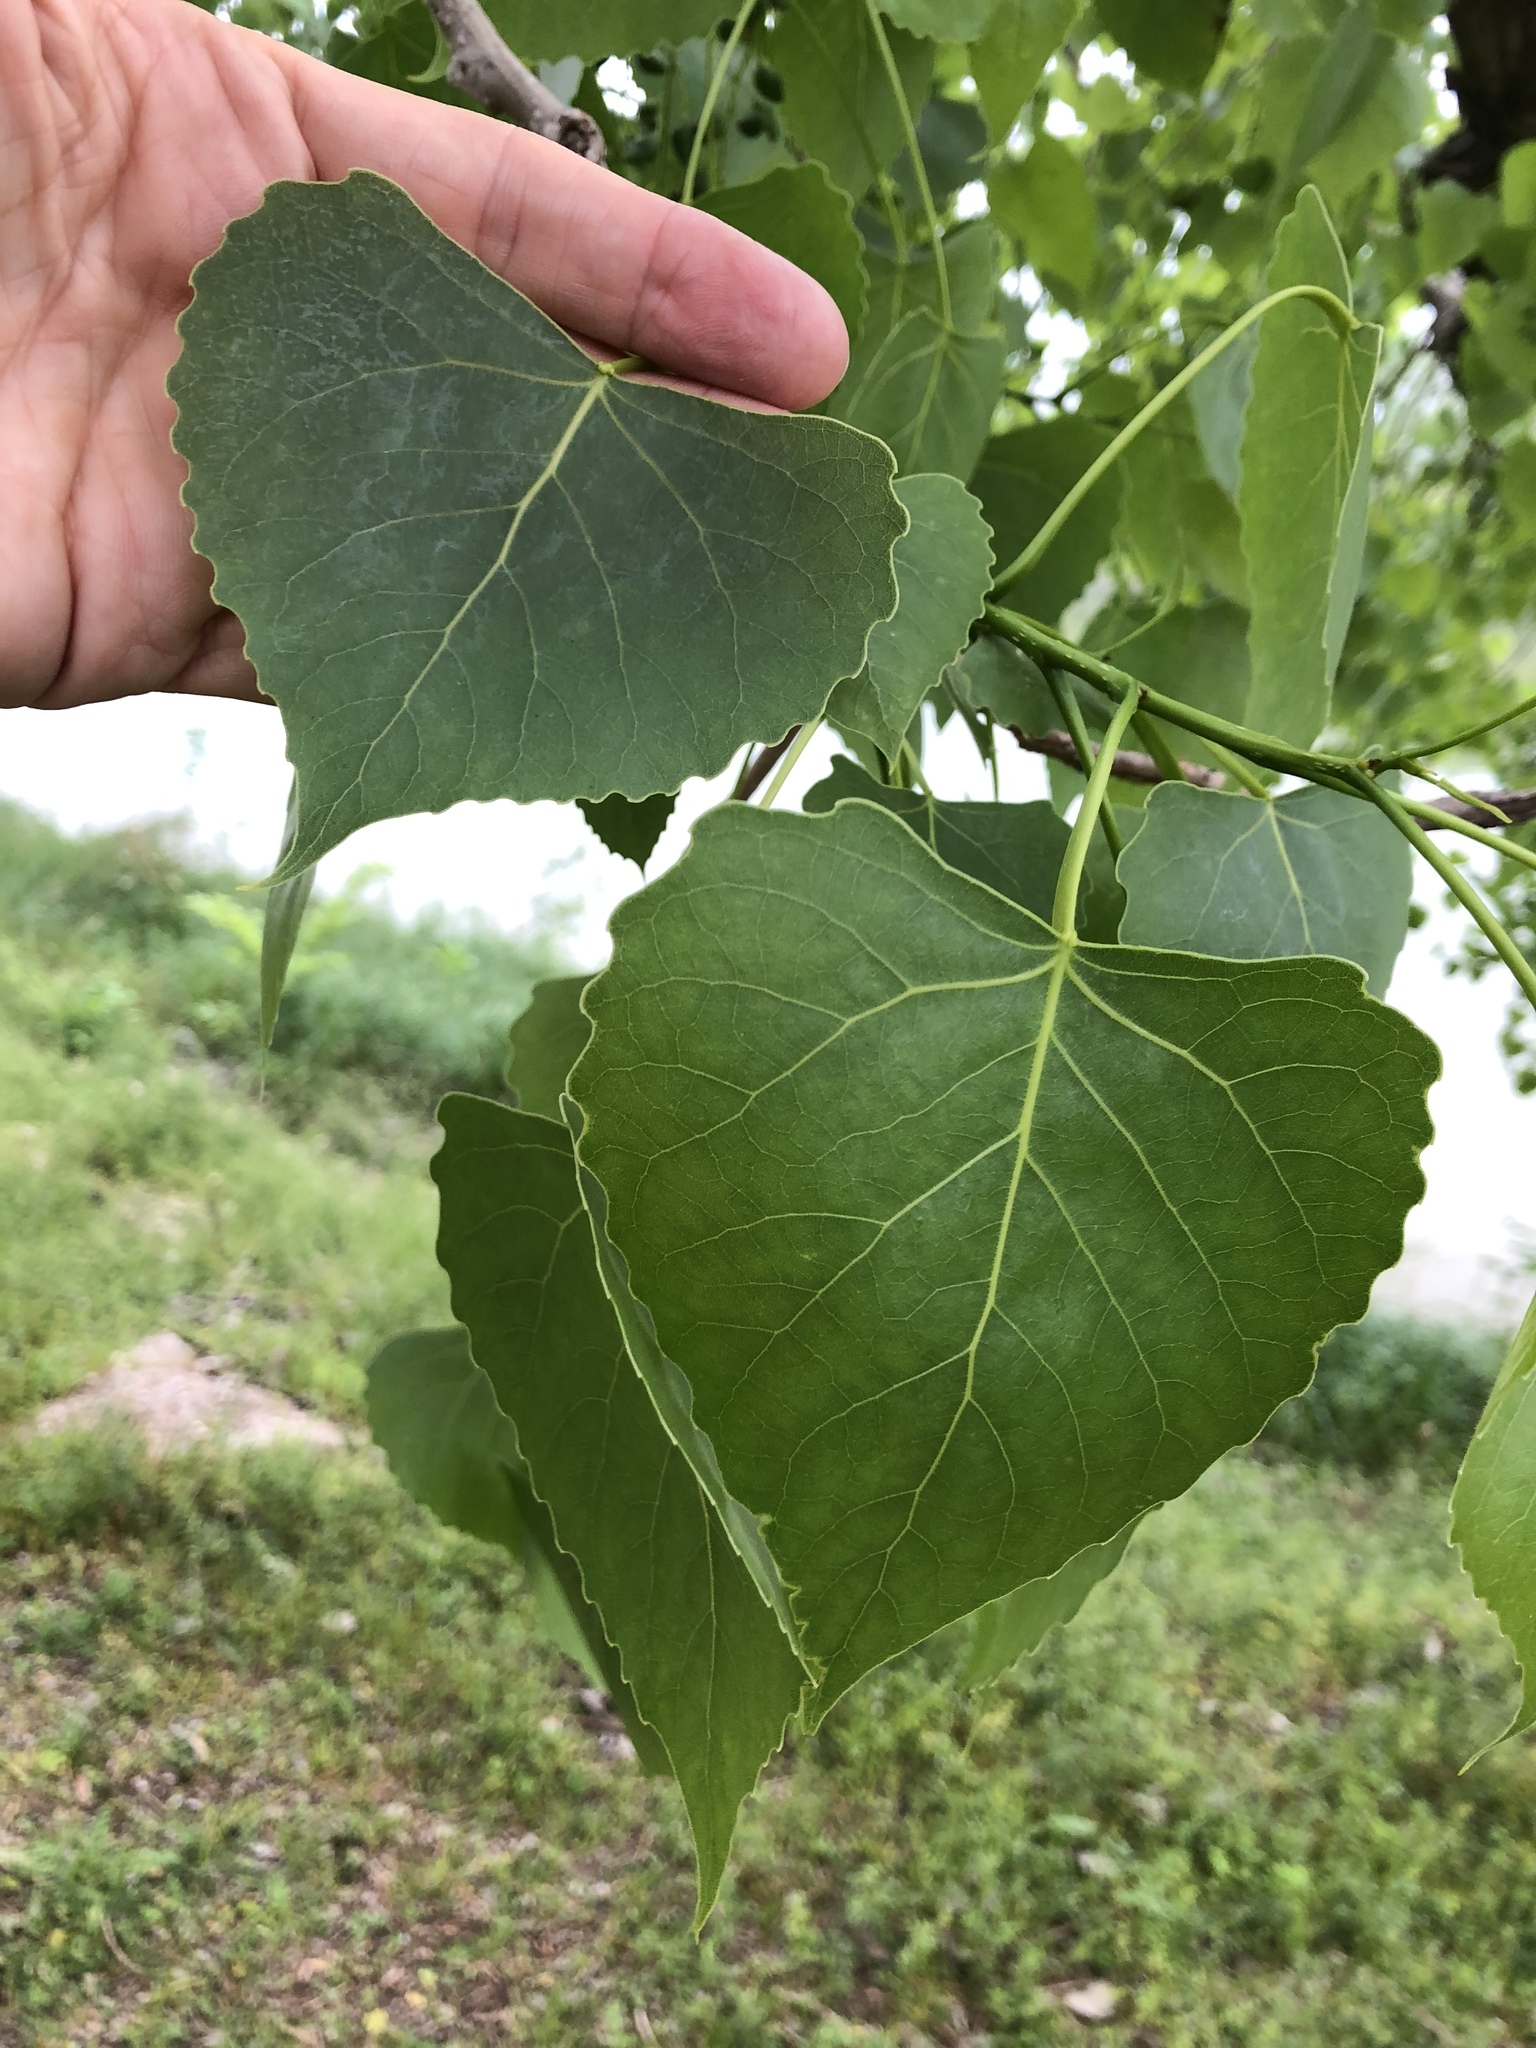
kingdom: Plantae
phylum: Tracheophyta
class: Magnoliopsida
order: Malpighiales
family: Salicaceae
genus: Populus
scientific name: Populus deltoides
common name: Eastern cottonwood
